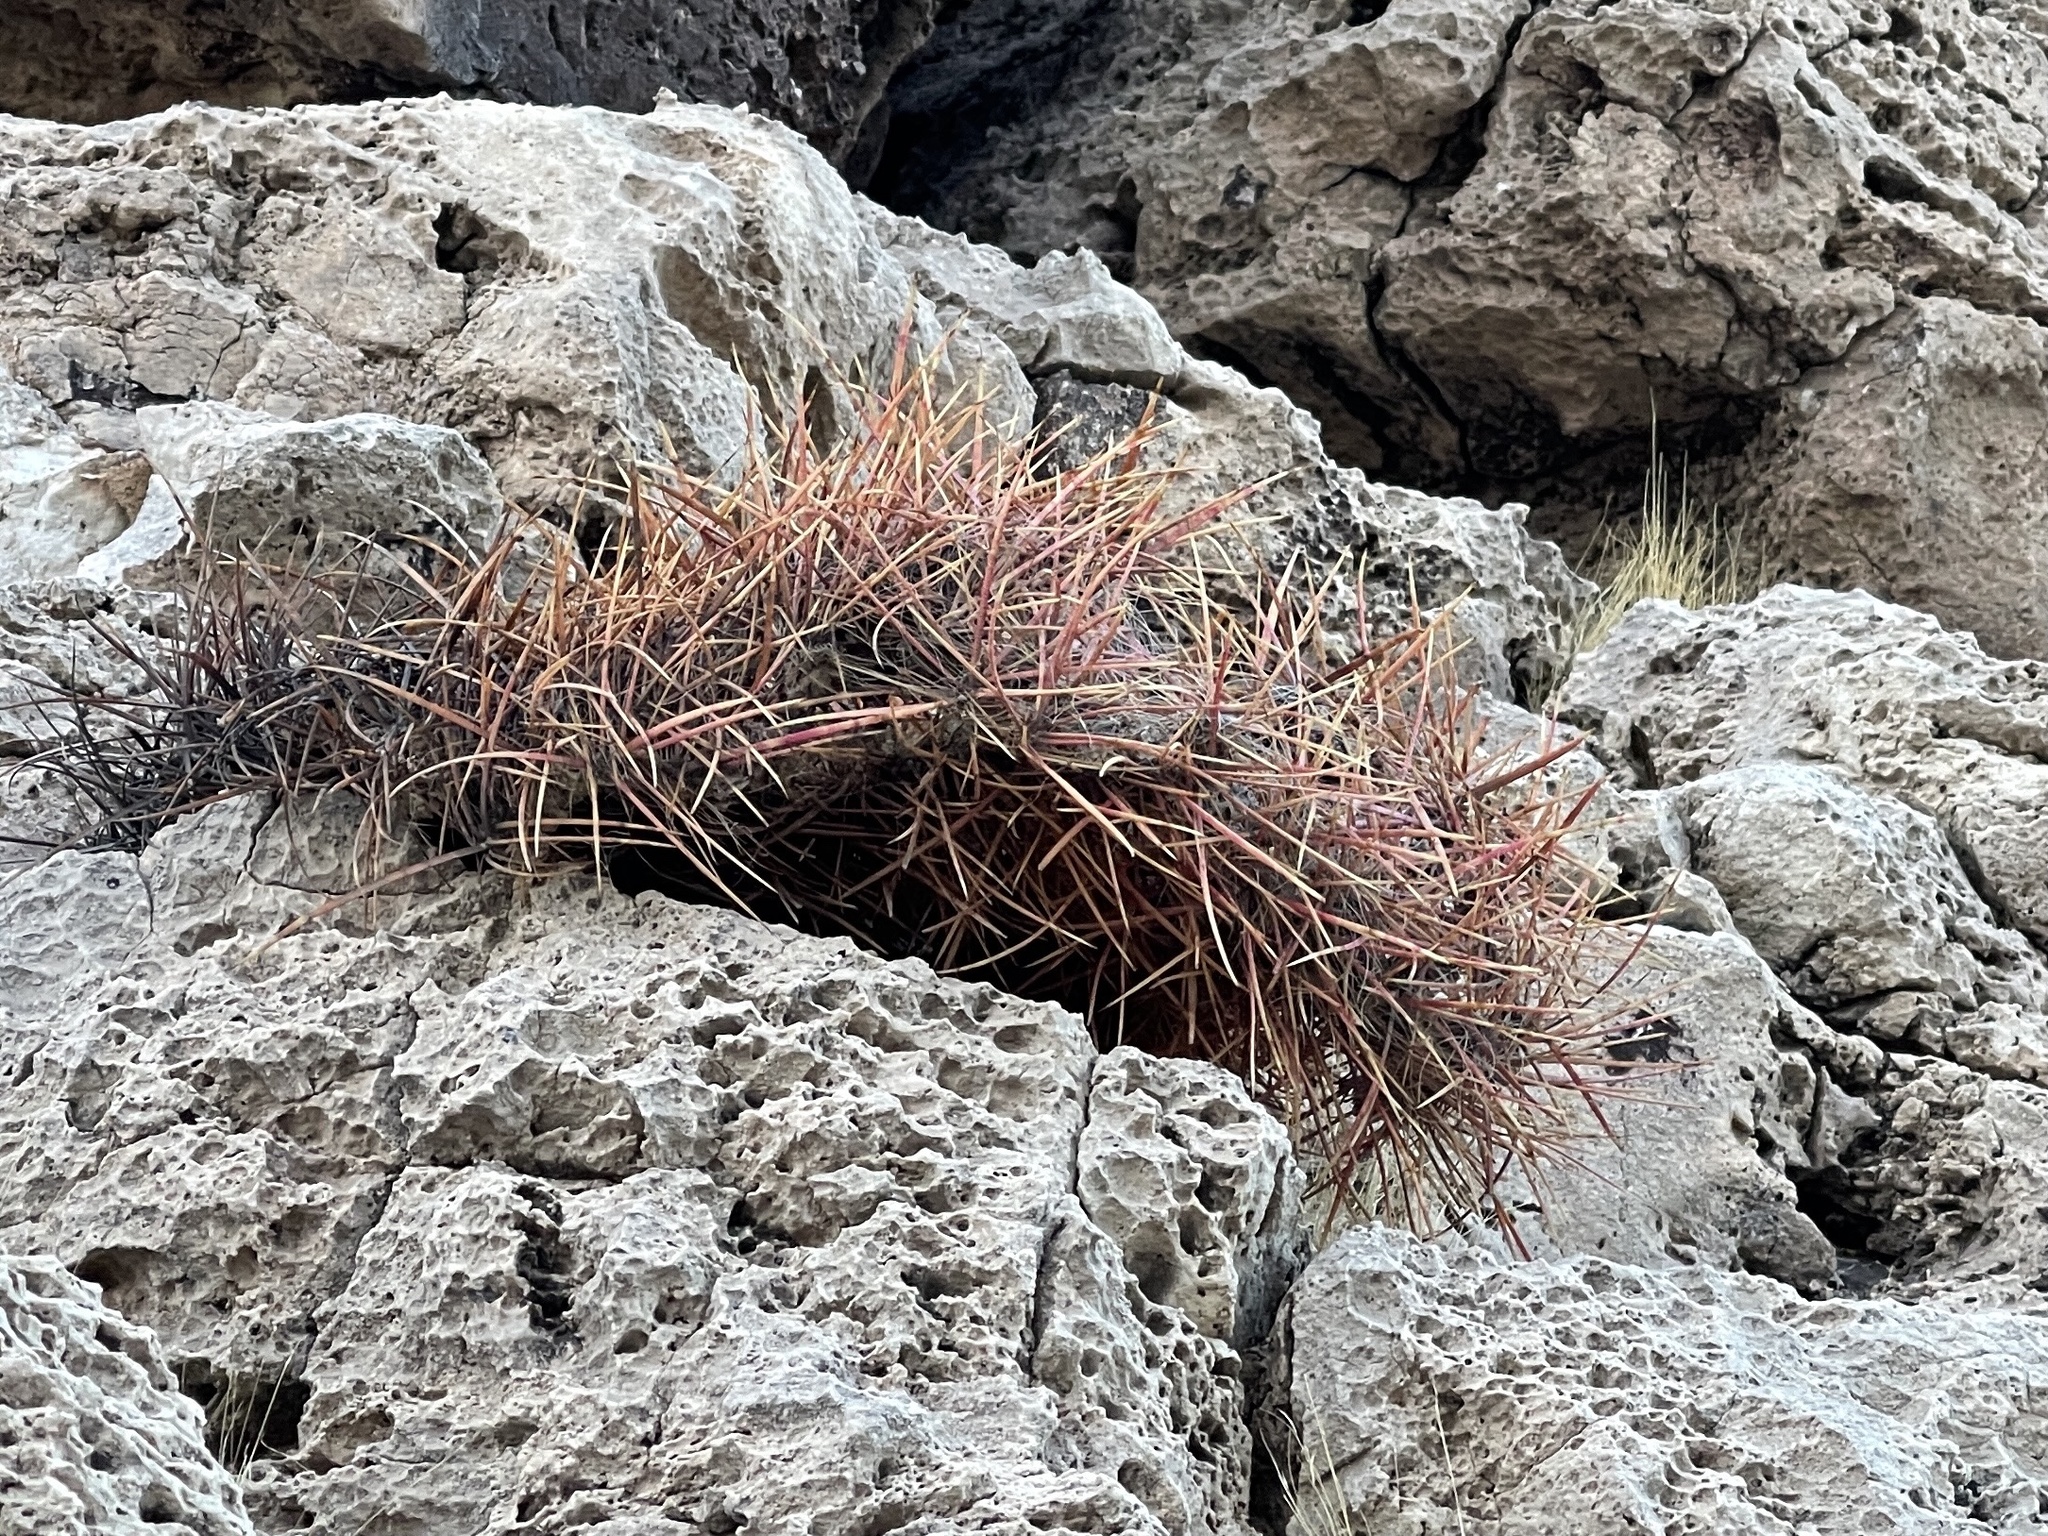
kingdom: Plantae
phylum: Tracheophyta
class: Magnoliopsida
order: Caryophyllales
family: Cactaceae
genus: Ferocactus
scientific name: Ferocactus cylindraceus
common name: California barrel cactus
